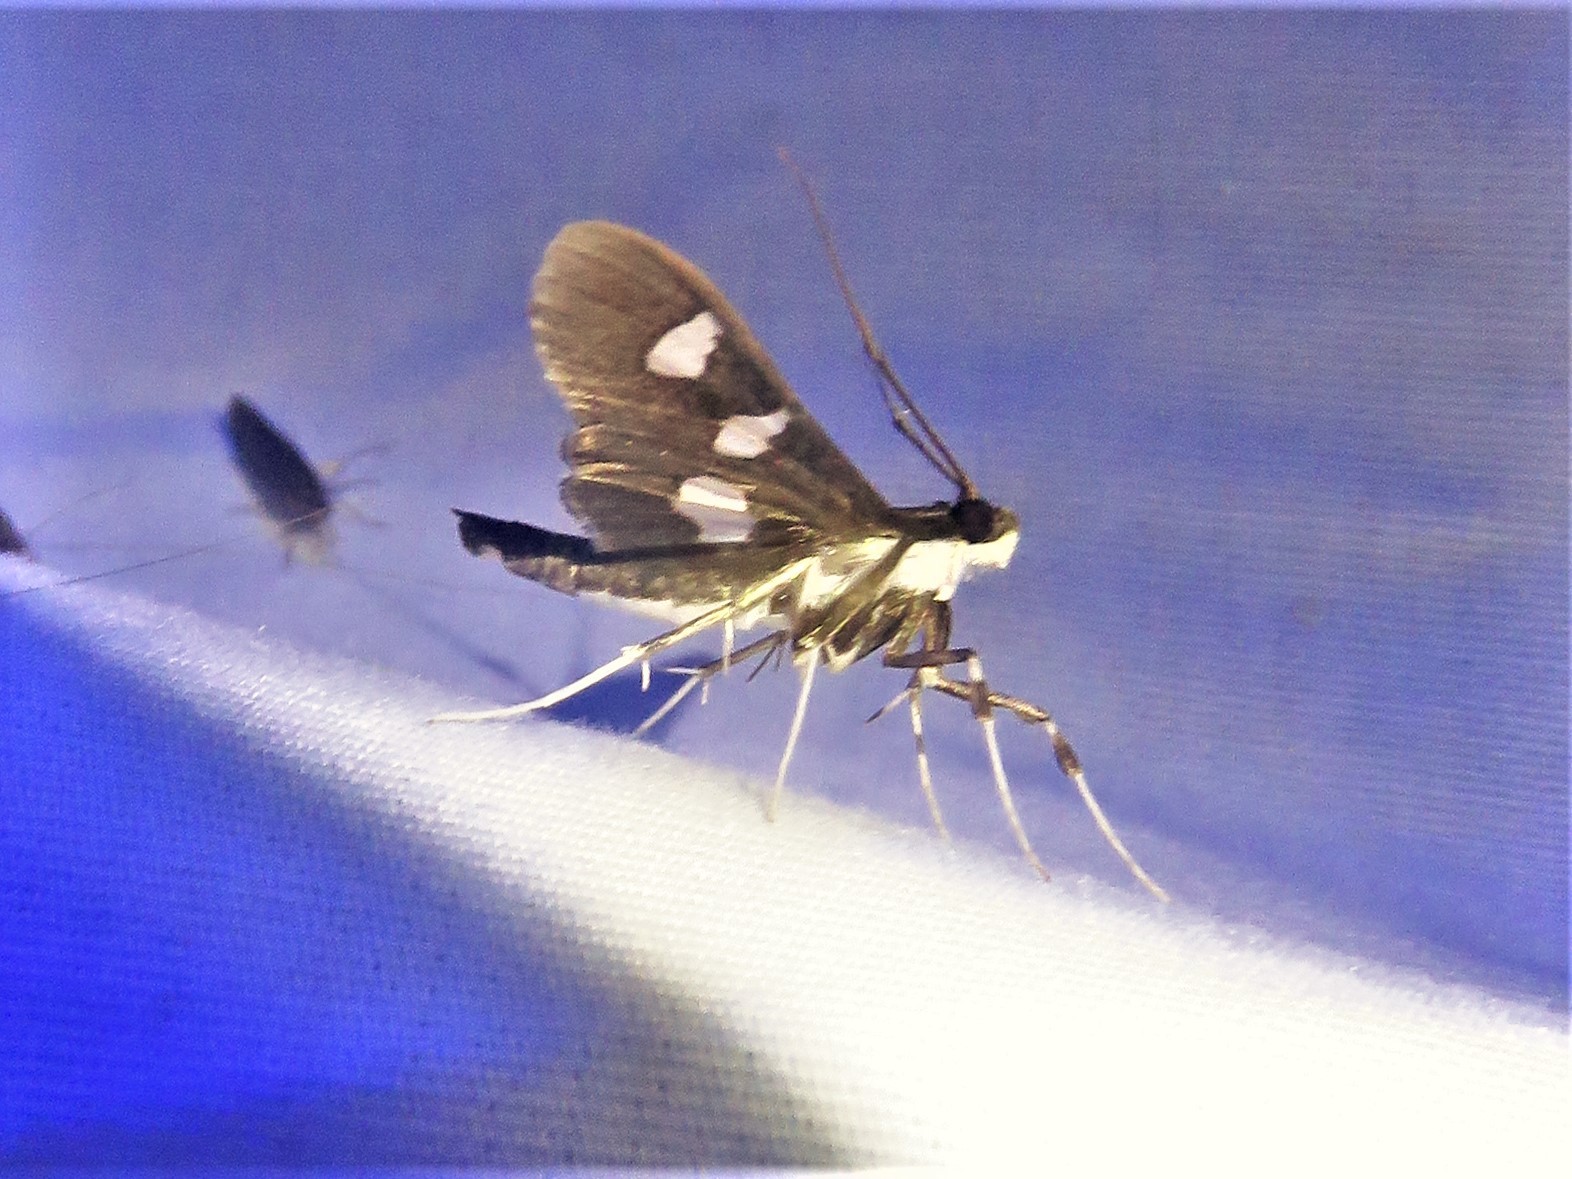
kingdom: Animalia
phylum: Arthropoda
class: Insecta
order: Lepidoptera
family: Crambidae
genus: Desmia
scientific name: Desmia funeralis
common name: Grape leaf folder moth
